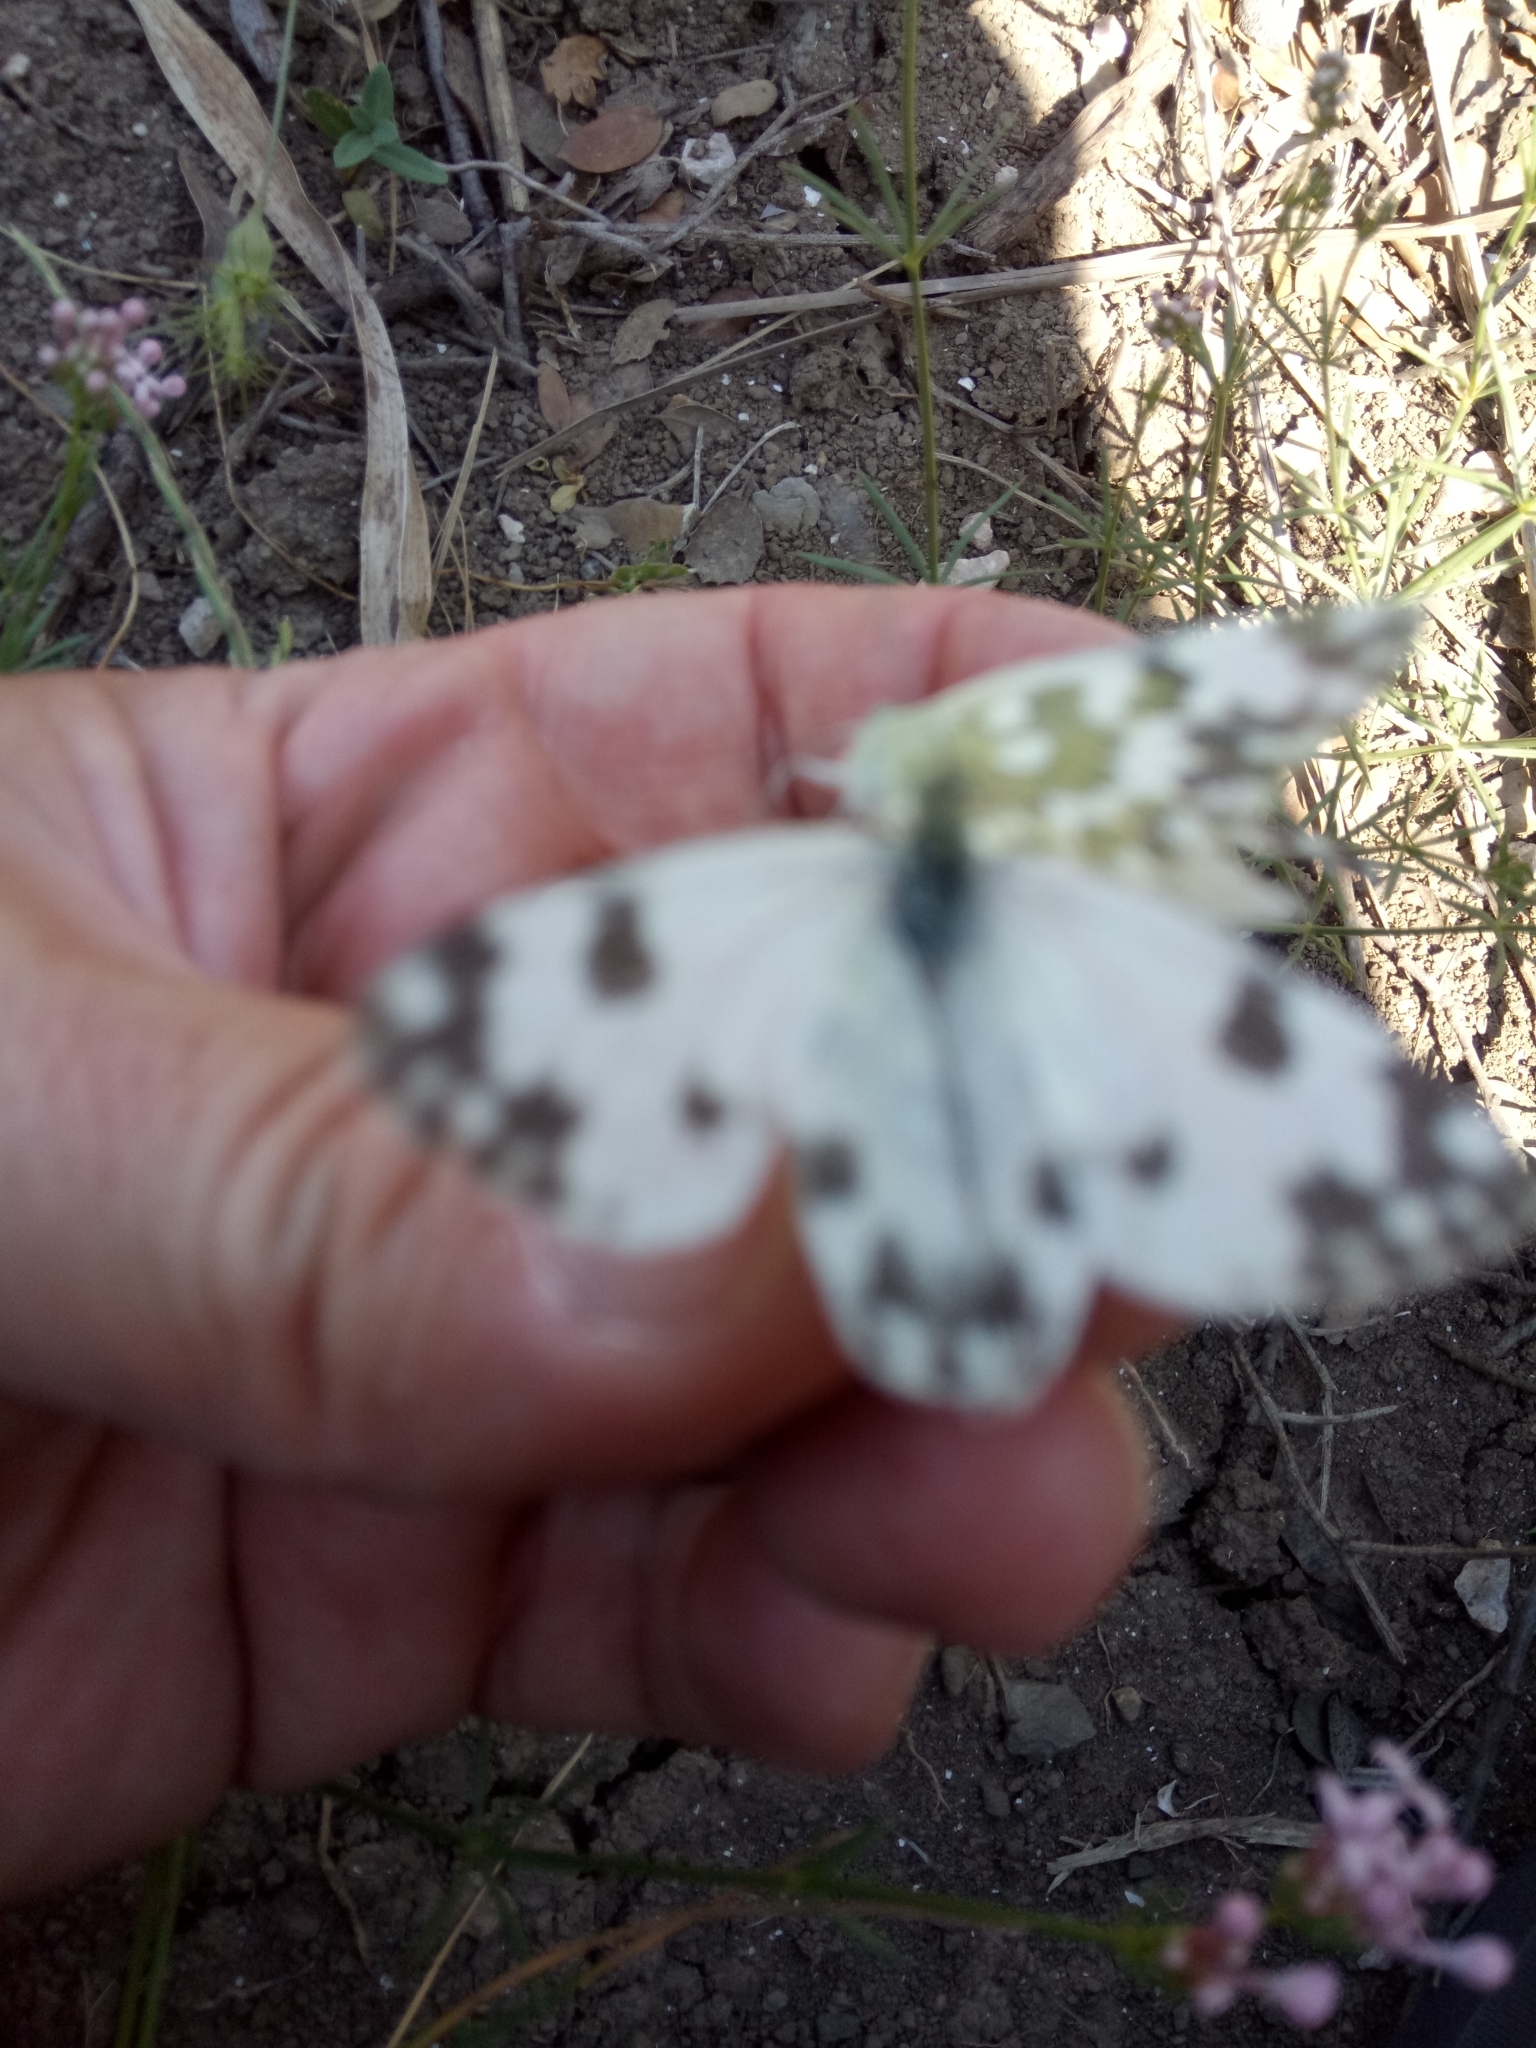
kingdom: Animalia
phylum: Arthropoda
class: Insecta
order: Lepidoptera
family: Pieridae
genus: Pontia
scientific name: Pontia daplidice
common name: Bath white
